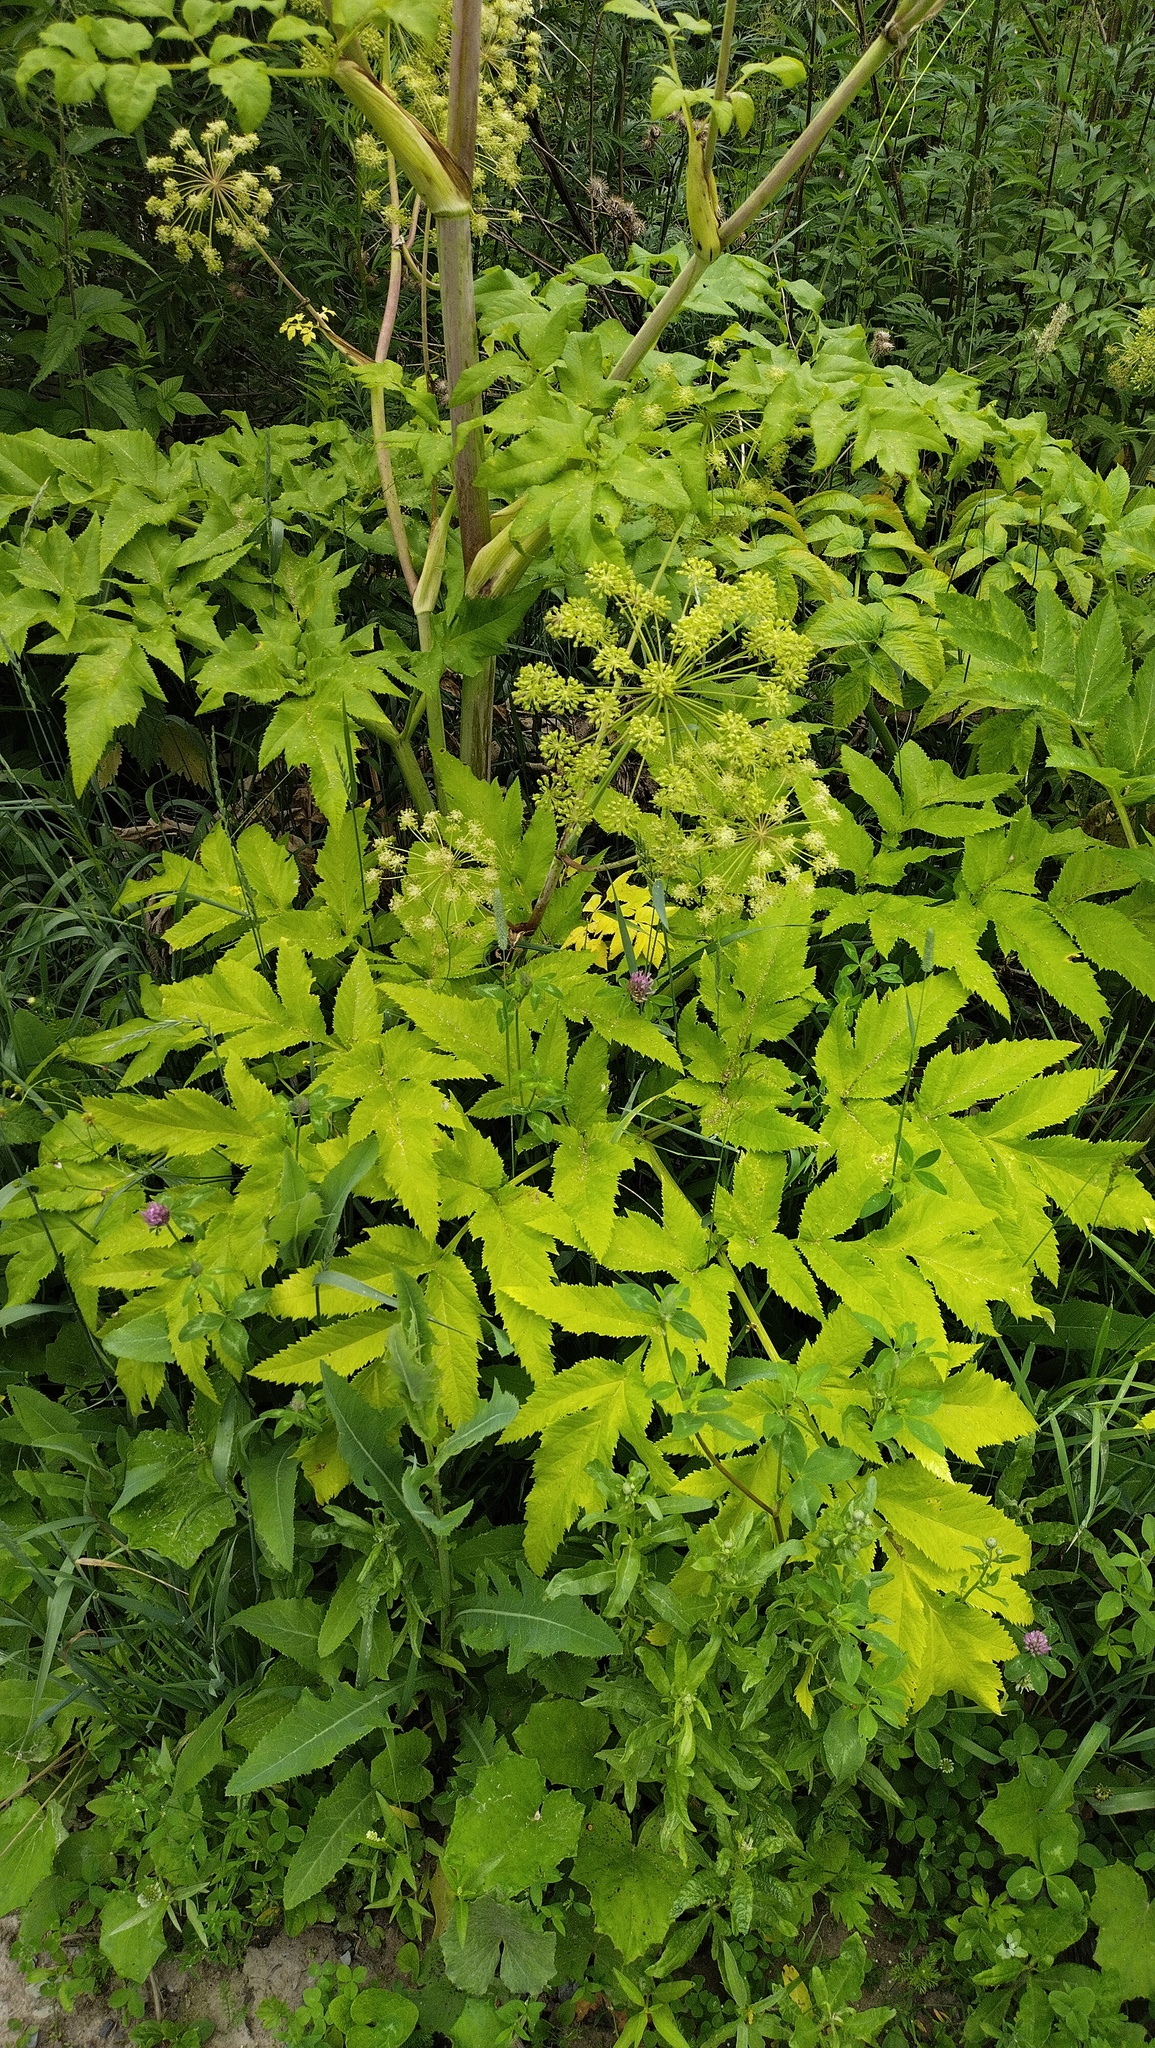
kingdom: Plantae
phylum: Tracheophyta
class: Magnoliopsida
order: Apiales
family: Apiaceae
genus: Angelica
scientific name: Angelica decurrens
